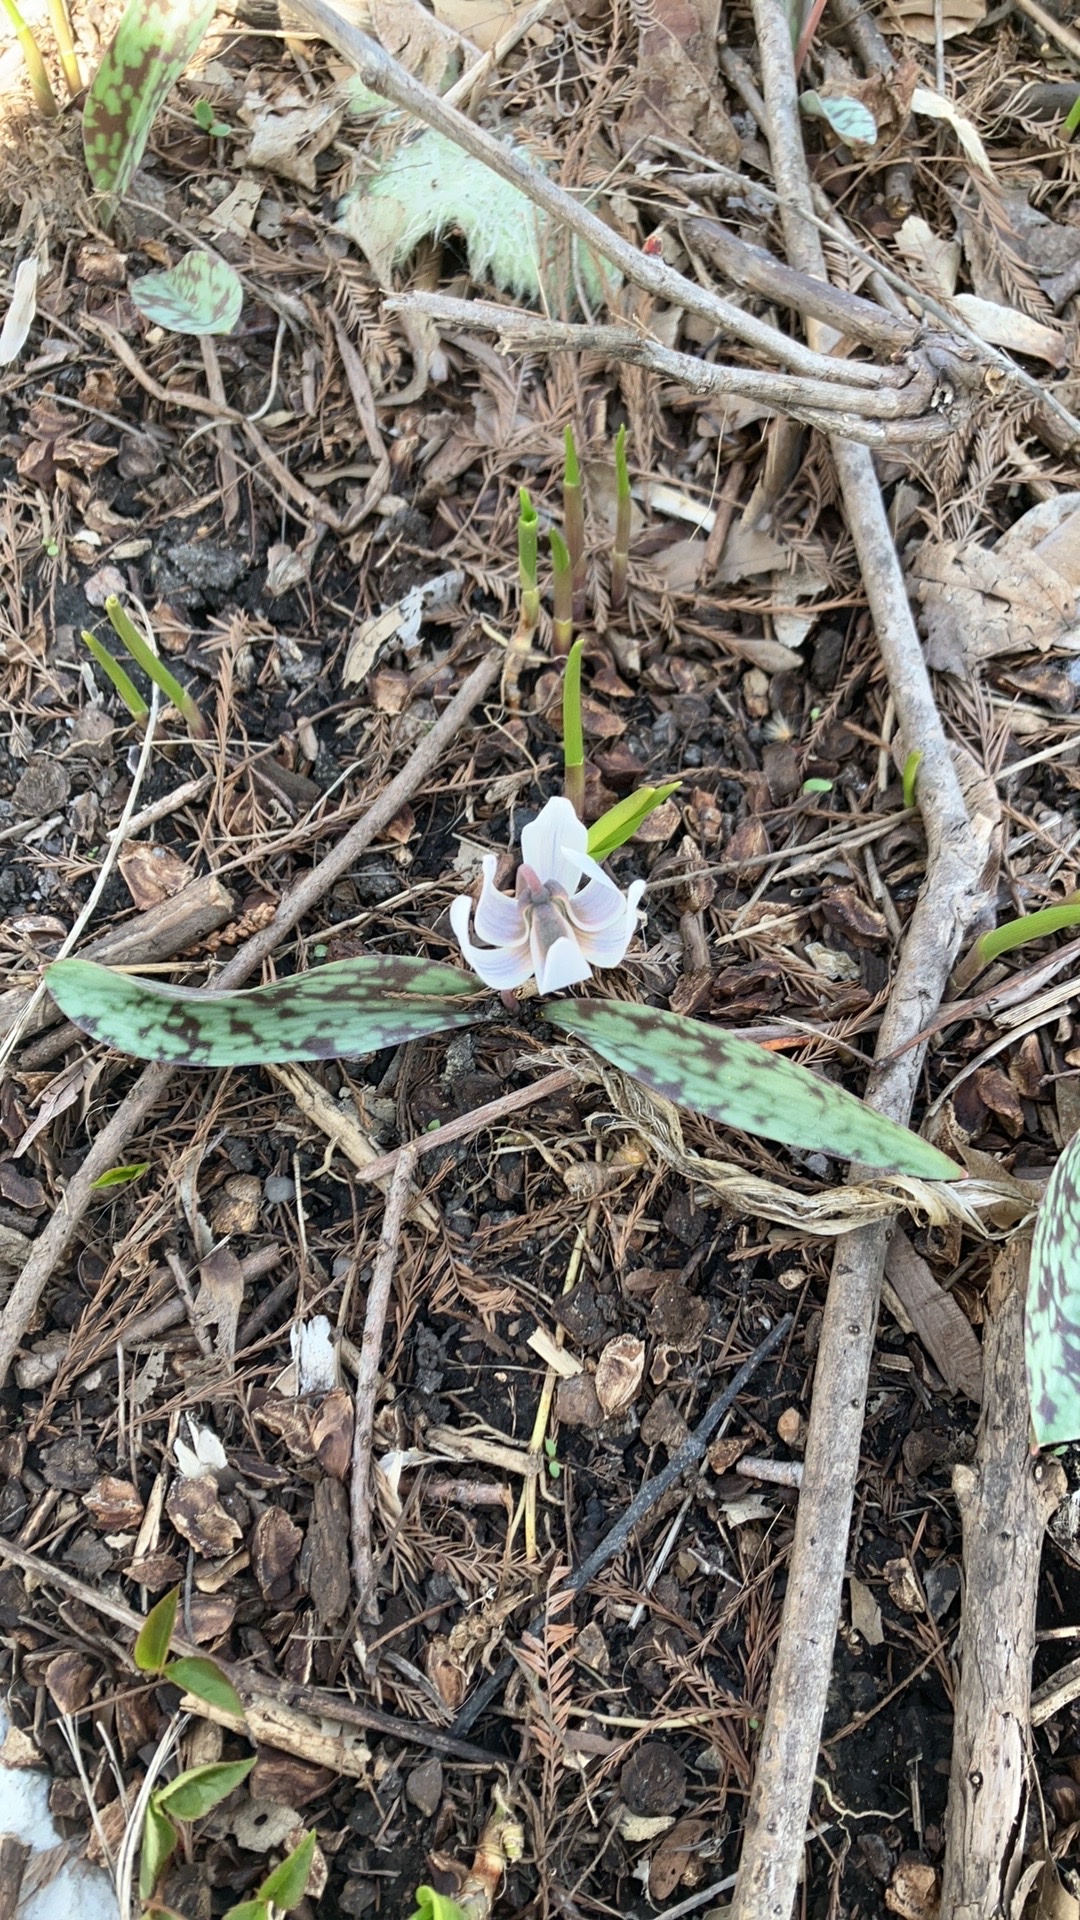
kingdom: Plantae
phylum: Tracheophyta
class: Liliopsida
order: Liliales
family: Liliaceae
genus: Erythronium
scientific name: Erythronium albidum
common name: White trout-lily
